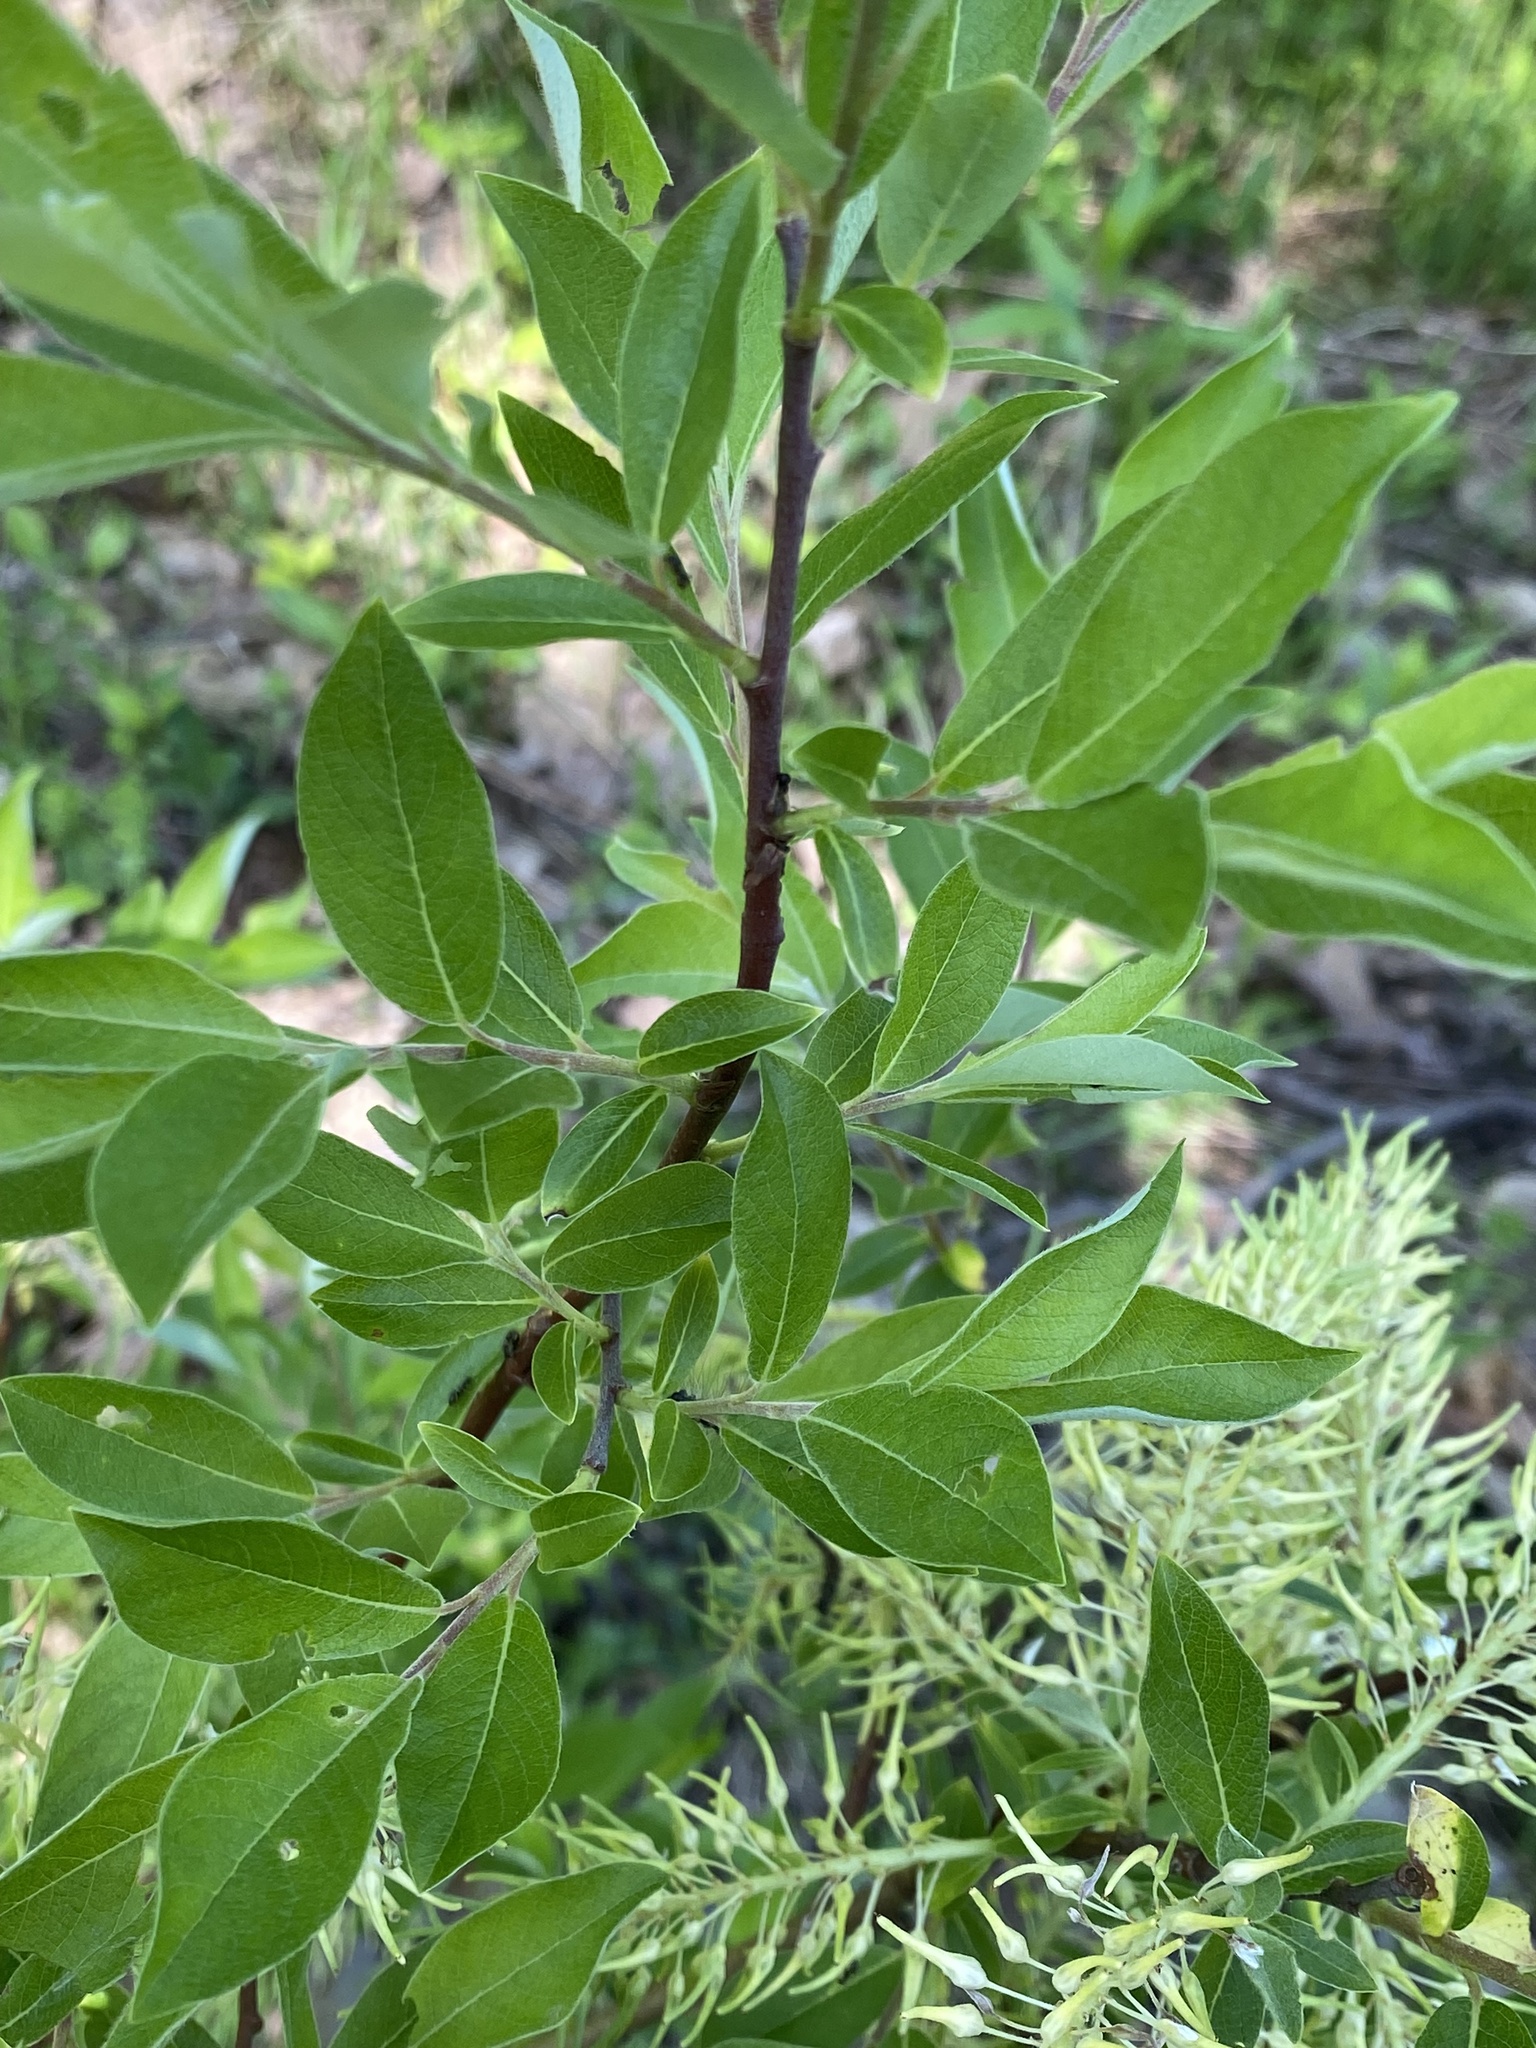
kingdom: Plantae
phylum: Tracheophyta
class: Magnoliopsida
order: Malpighiales
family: Salicaceae
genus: Salix
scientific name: Salix bebbiana
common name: Bebb's willow
